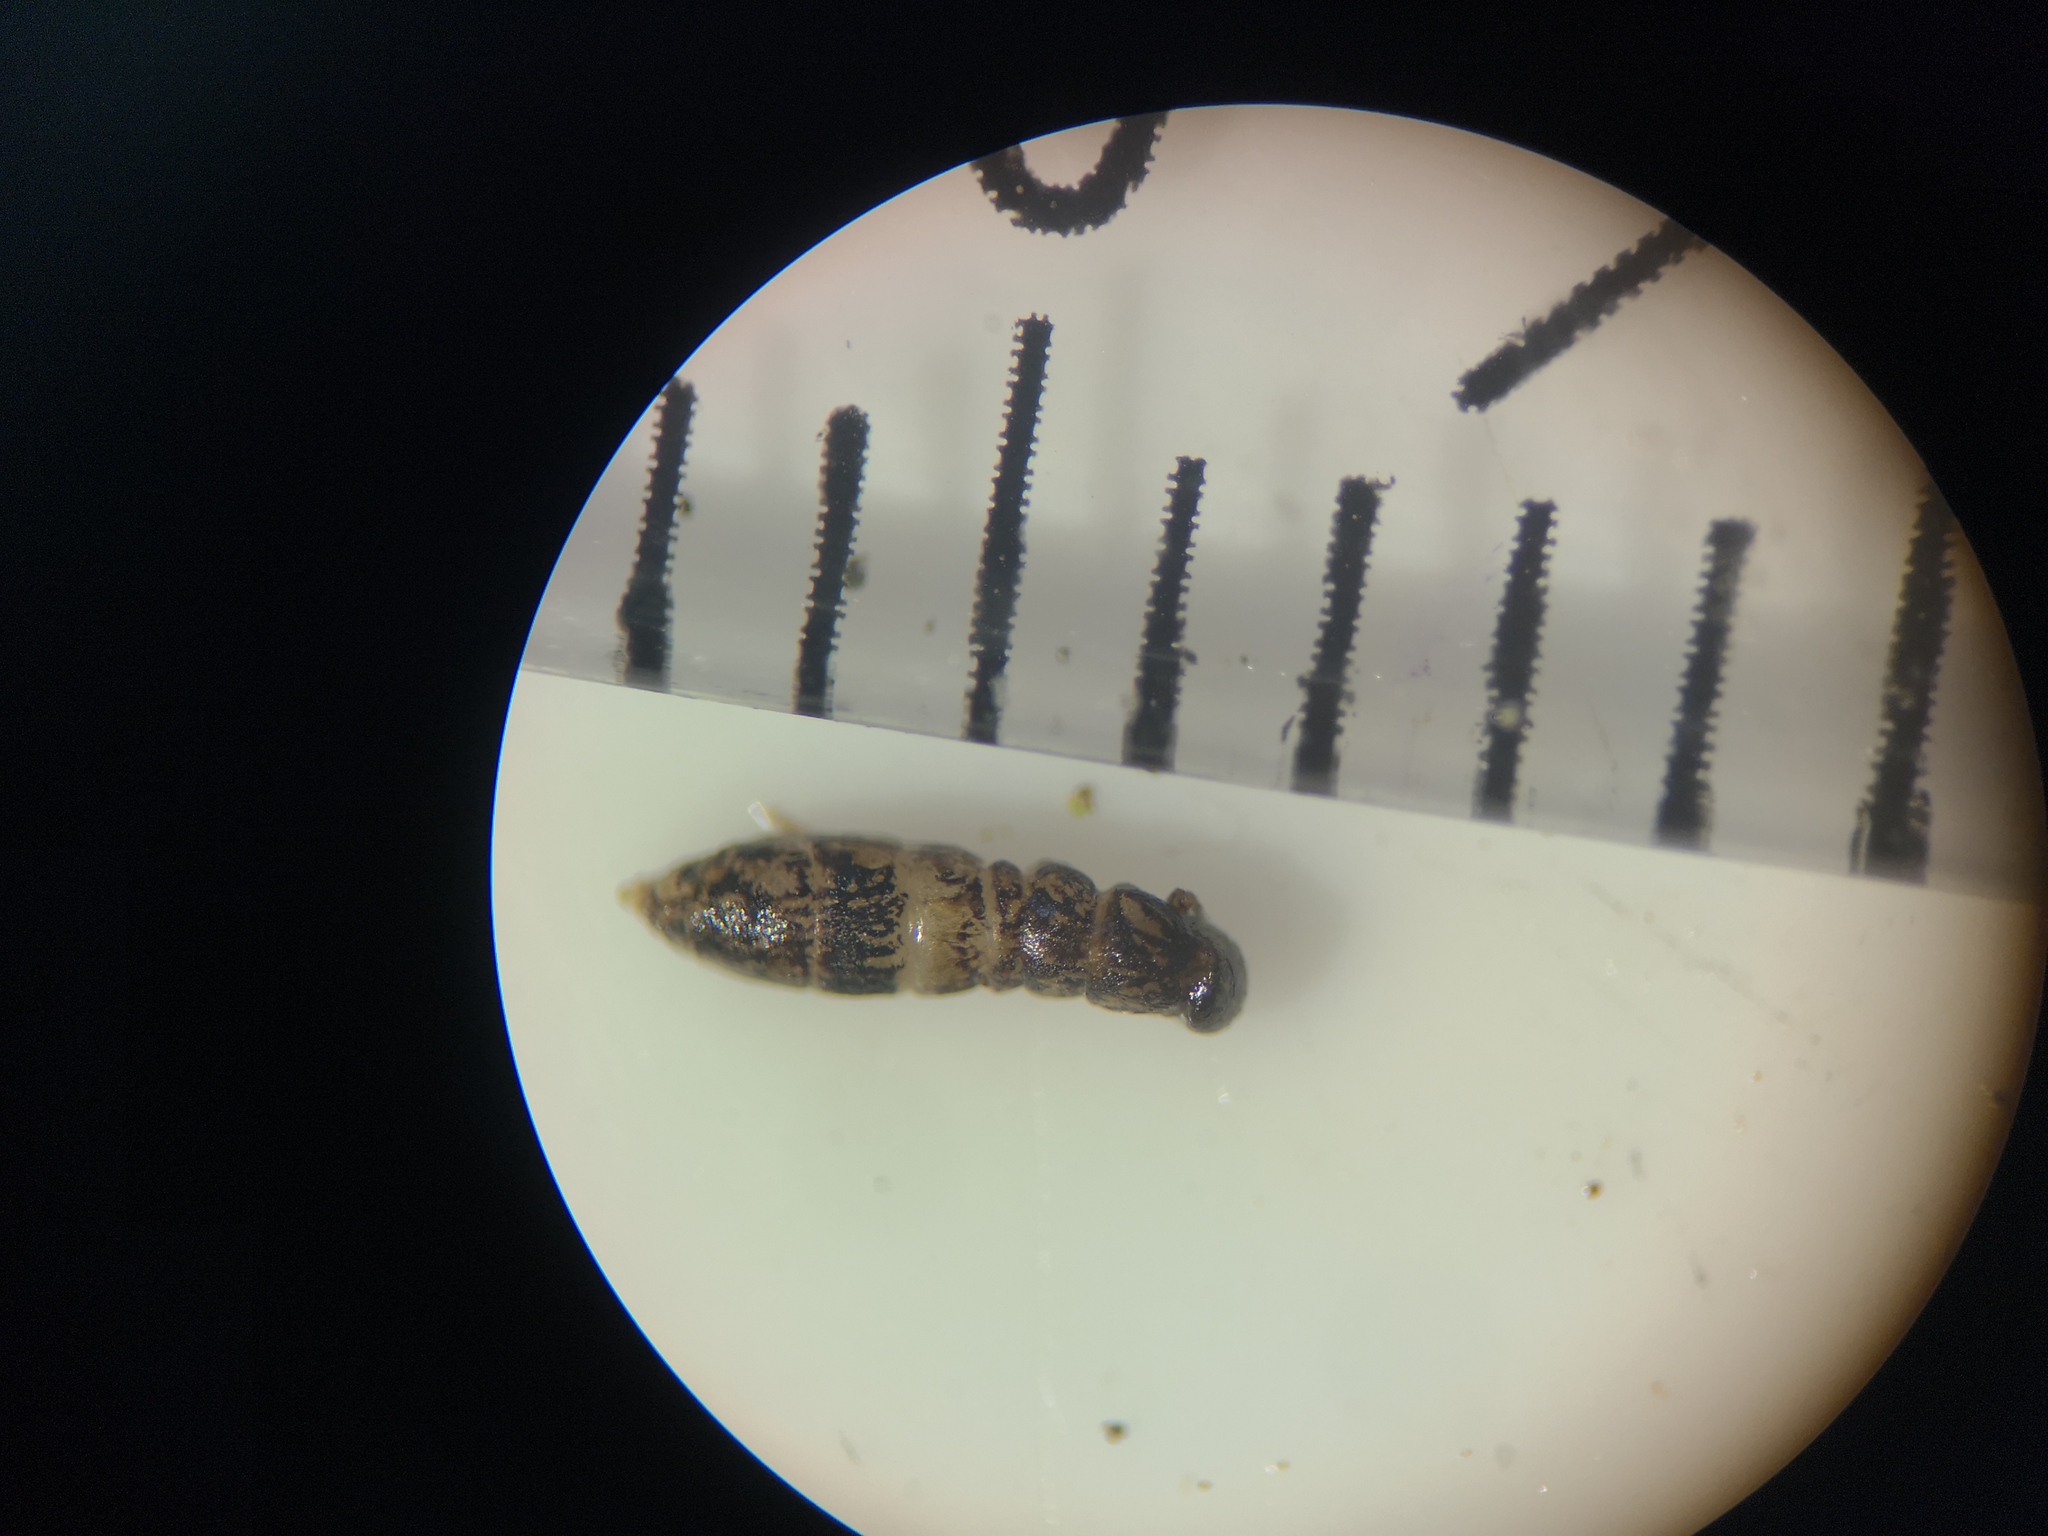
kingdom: Animalia
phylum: Arthropoda
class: Collembola
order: Entomobryomorpha
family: Orchesellidae
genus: Orchesella
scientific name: Orchesella cincta
